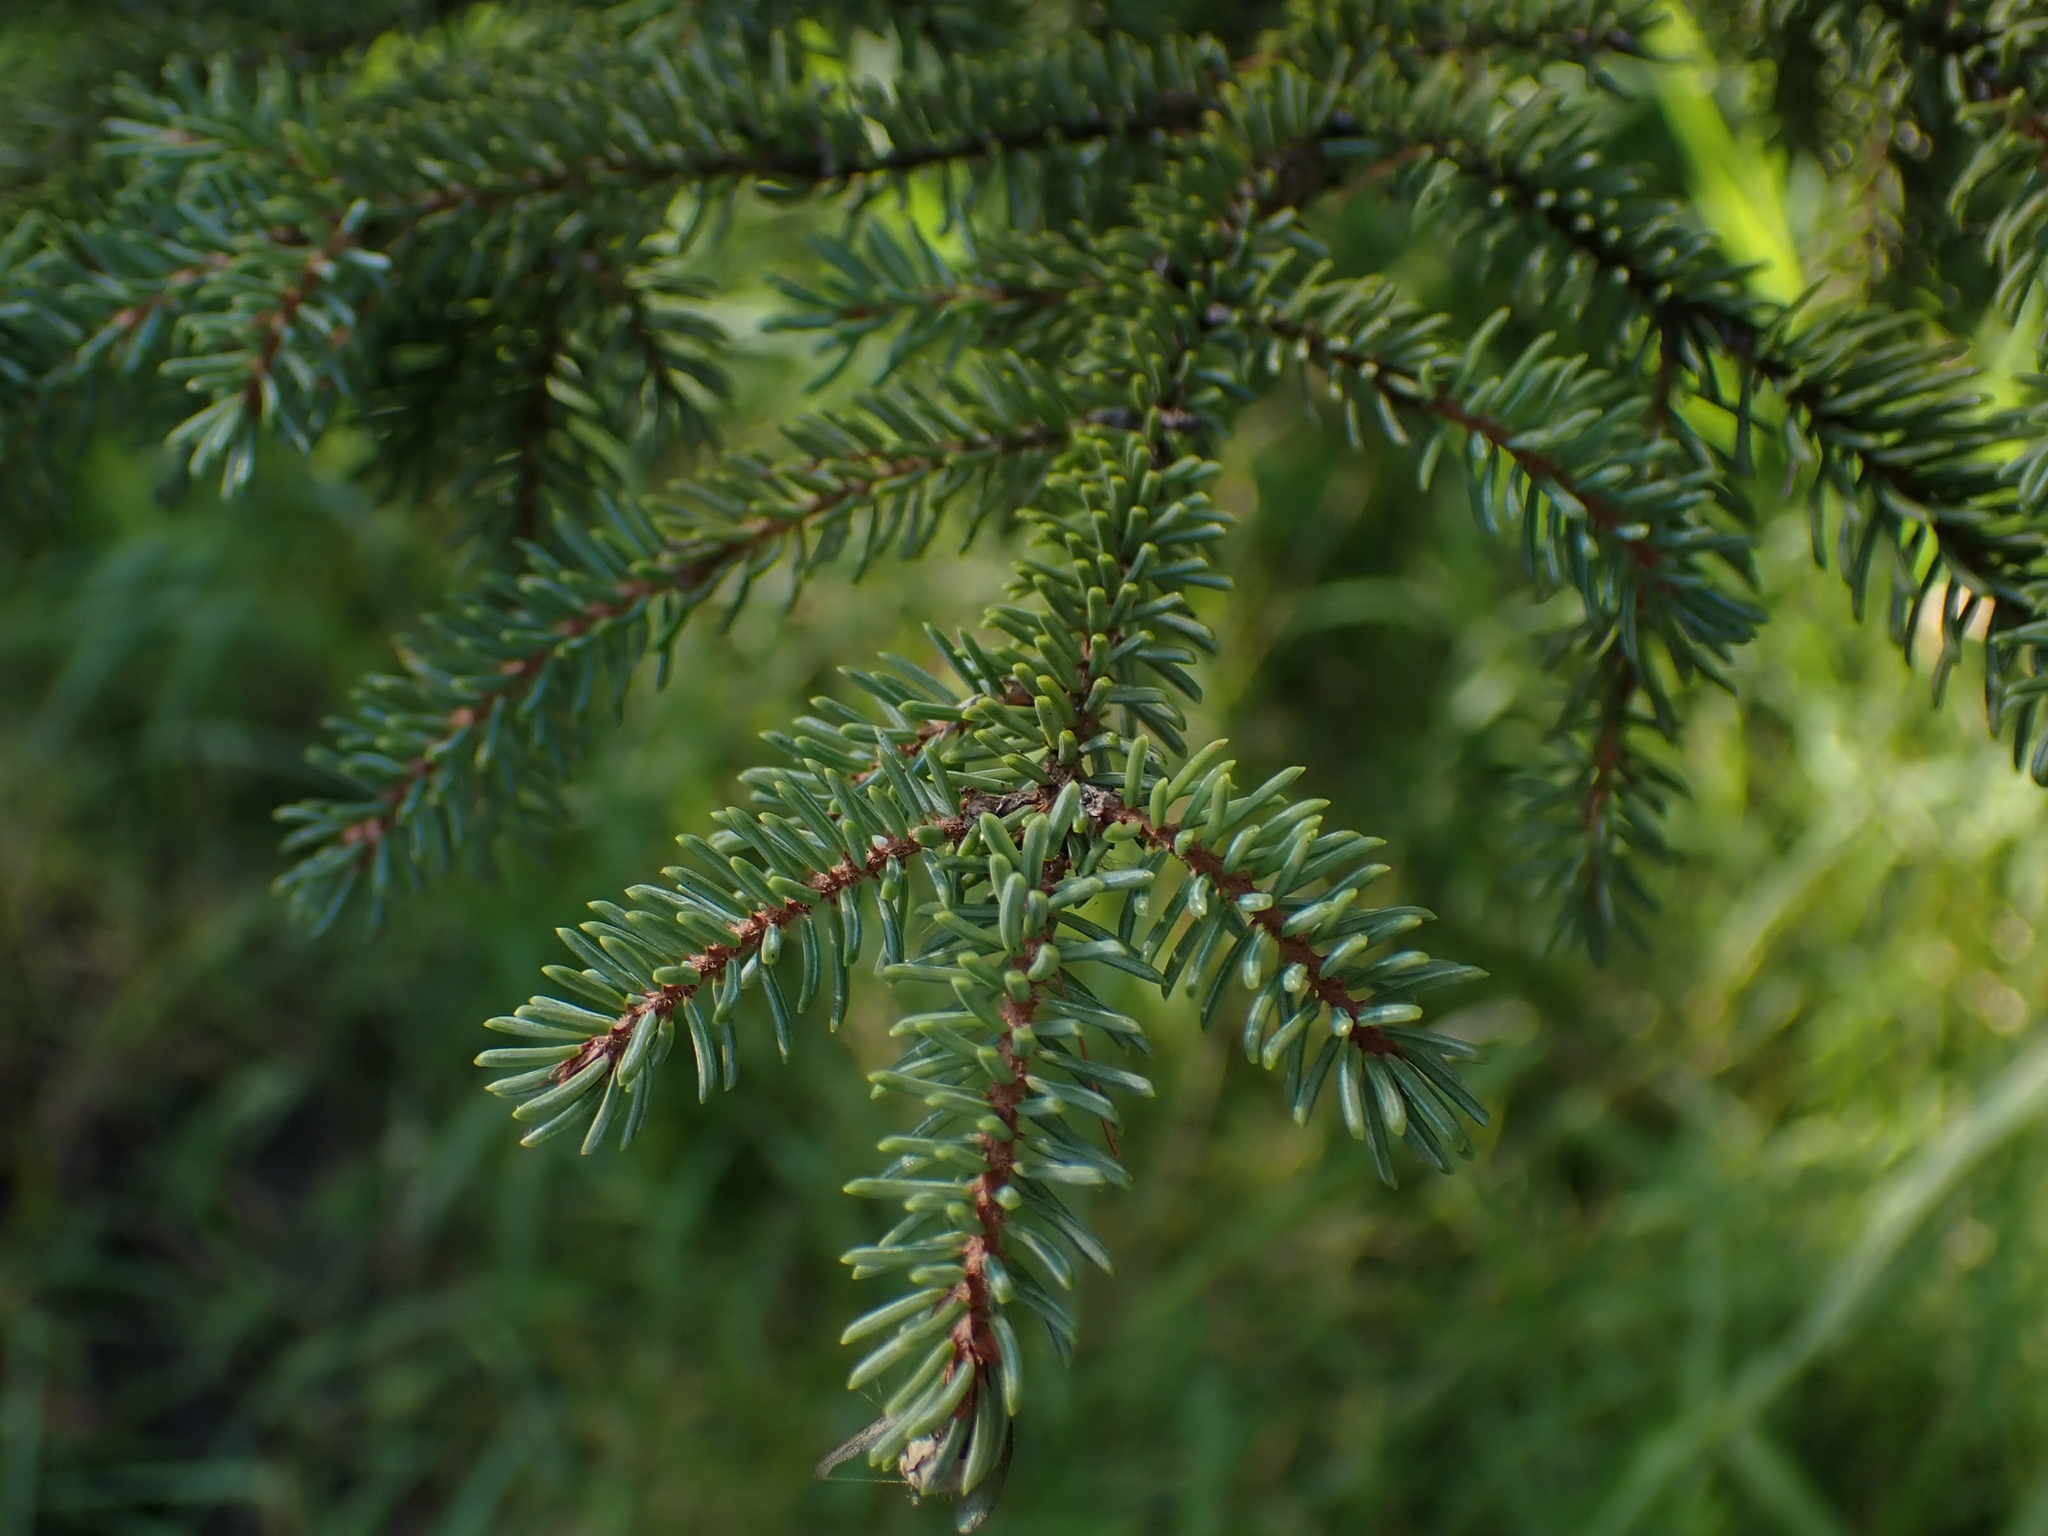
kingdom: Plantae
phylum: Tracheophyta
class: Pinopsida
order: Pinales
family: Pinaceae
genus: Picea
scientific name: Picea mariana
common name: Black spruce
